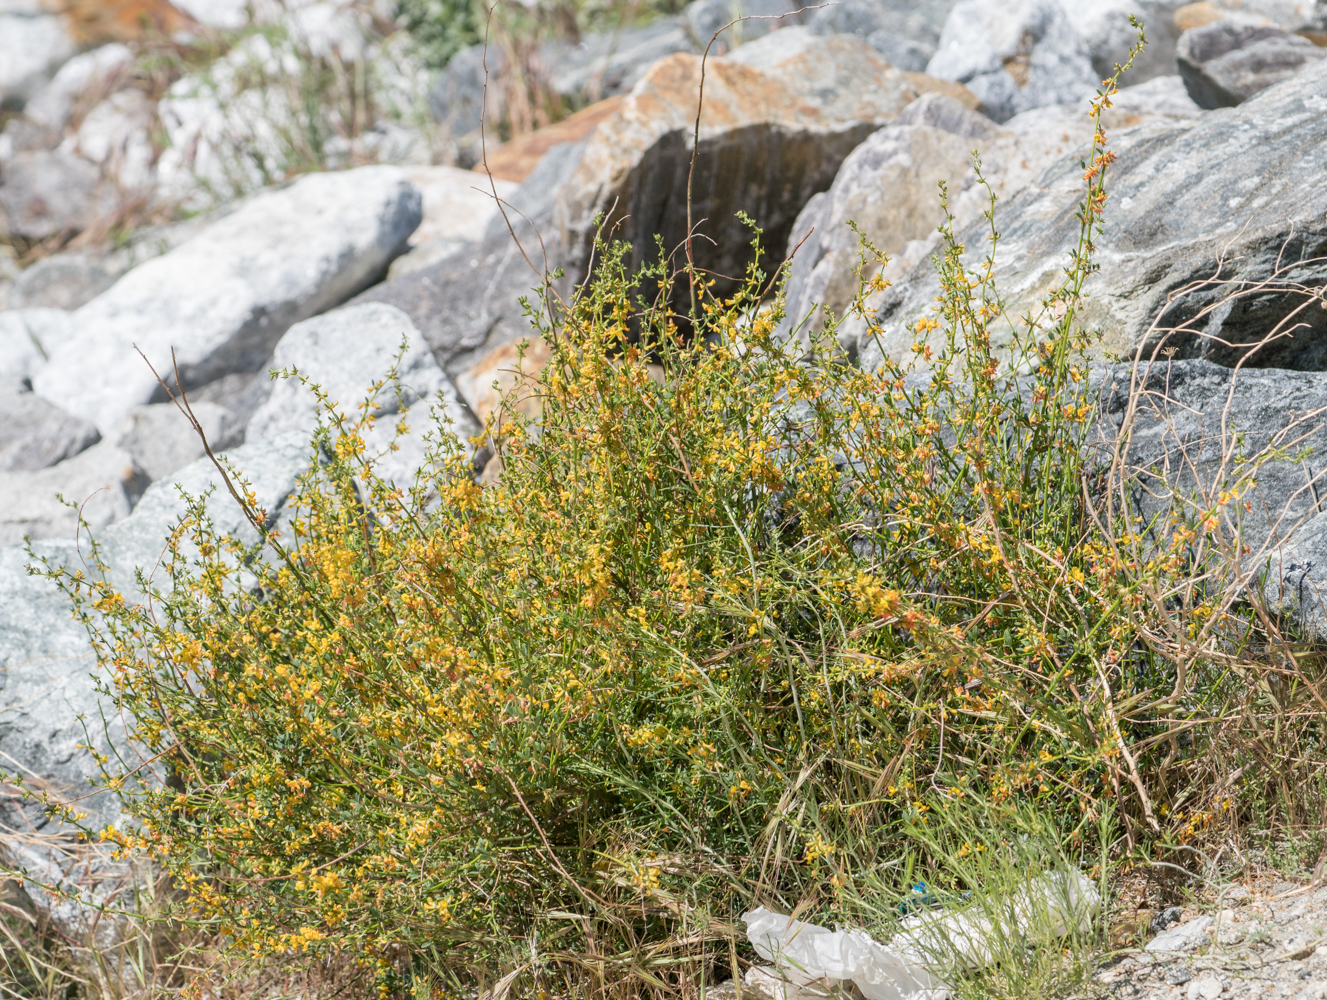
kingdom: Plantae
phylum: Tracheophyta
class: Magnoliopsida
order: Fabales
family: Fabaceae
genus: Acmispon
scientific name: Acmispon glaber
